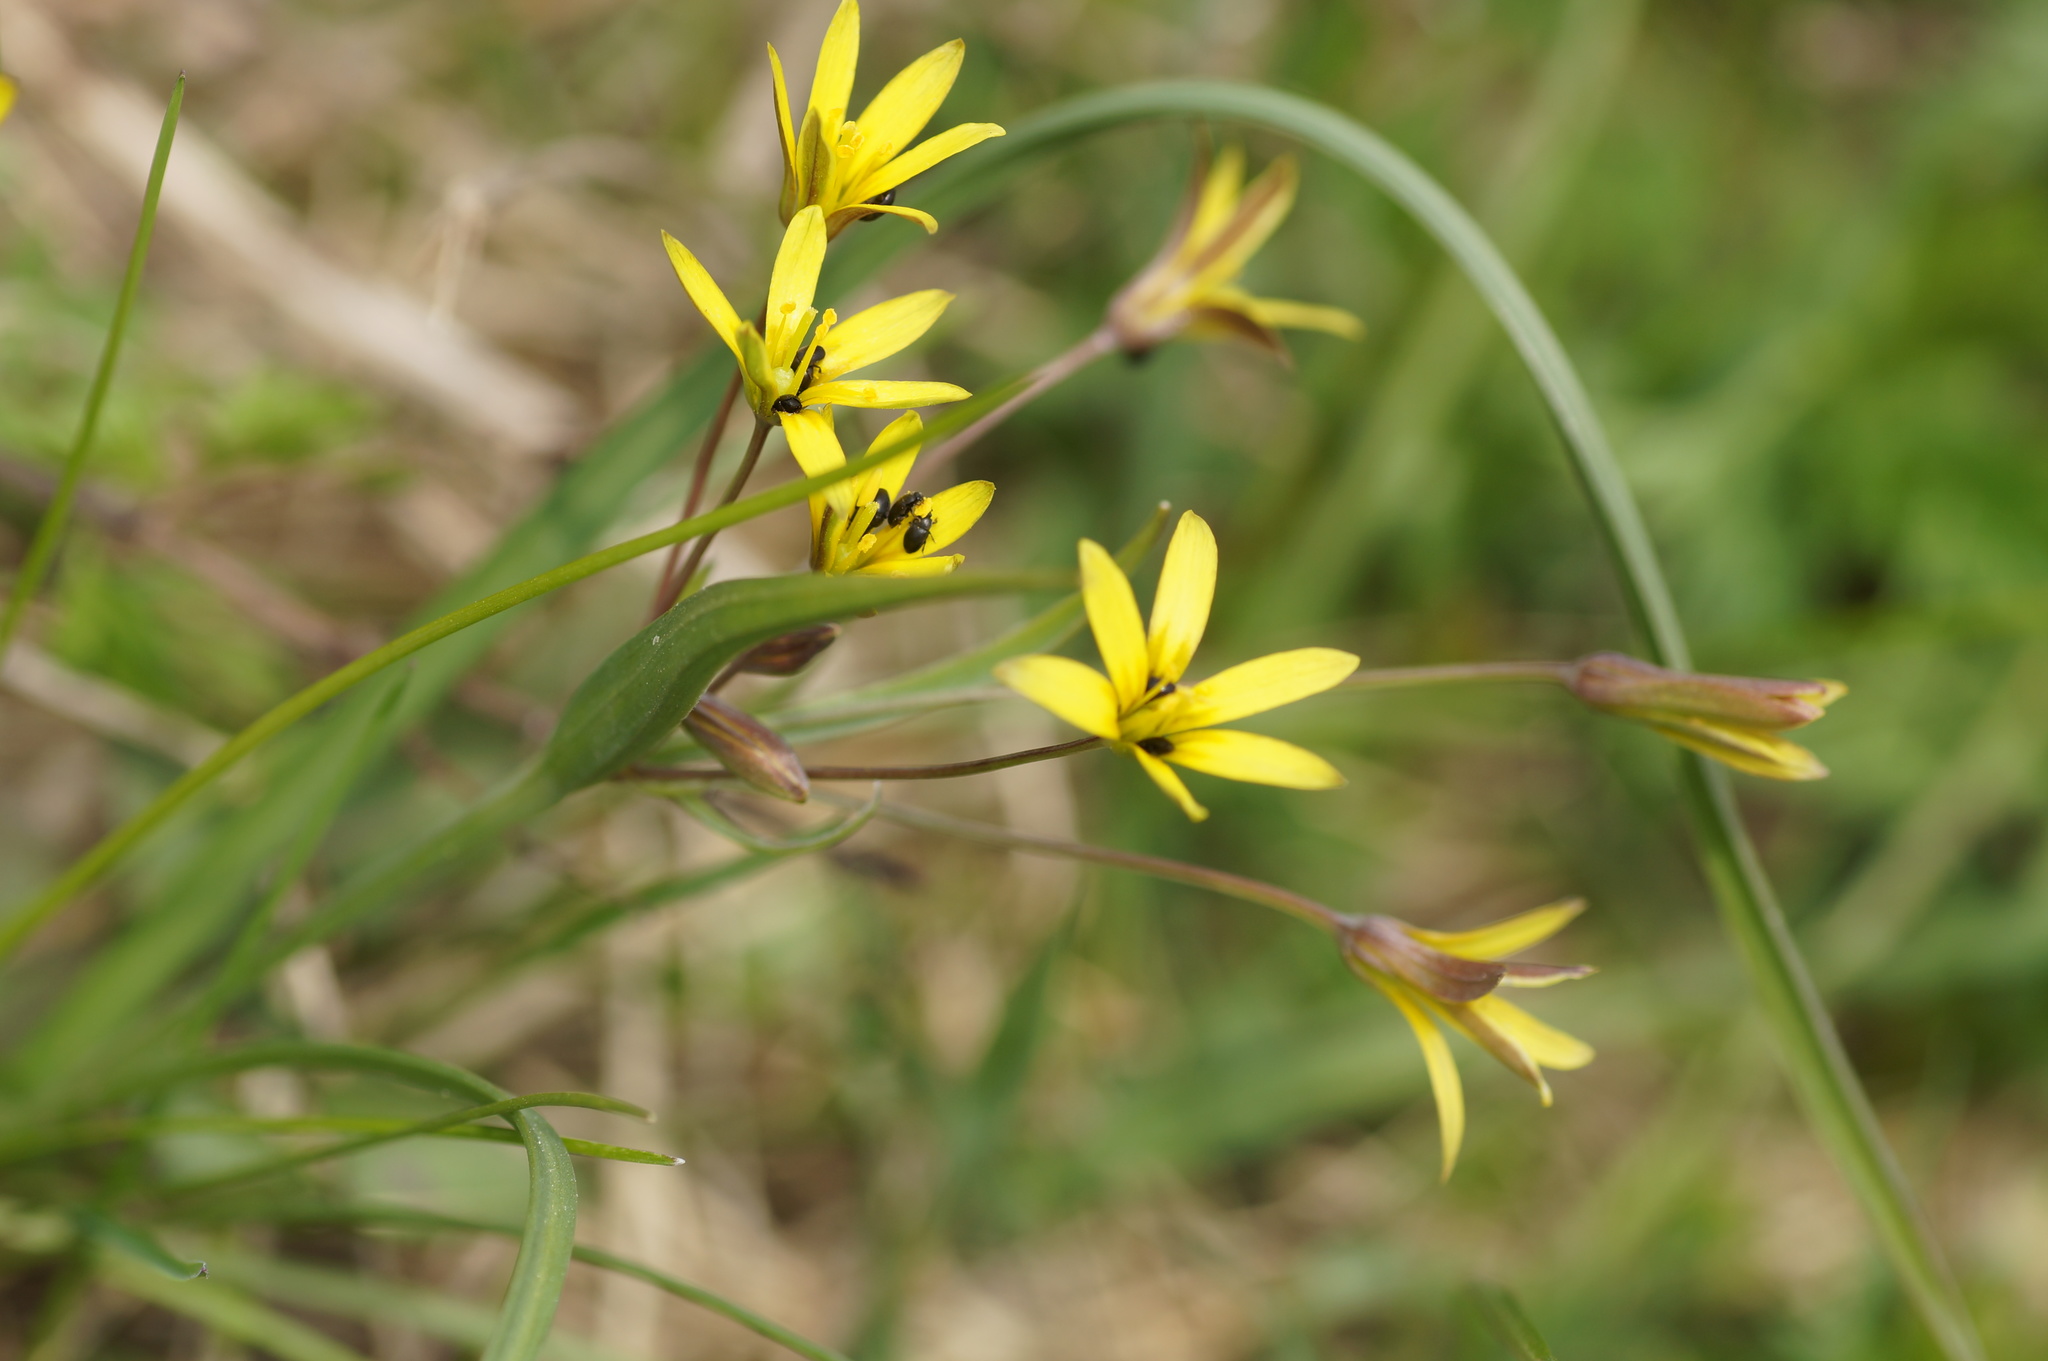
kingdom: Plantae
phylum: Tracheophyta
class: Liliopsida
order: Liliales
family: Liliaceae
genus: Gagea
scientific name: Gagea fragifera
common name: Lily
